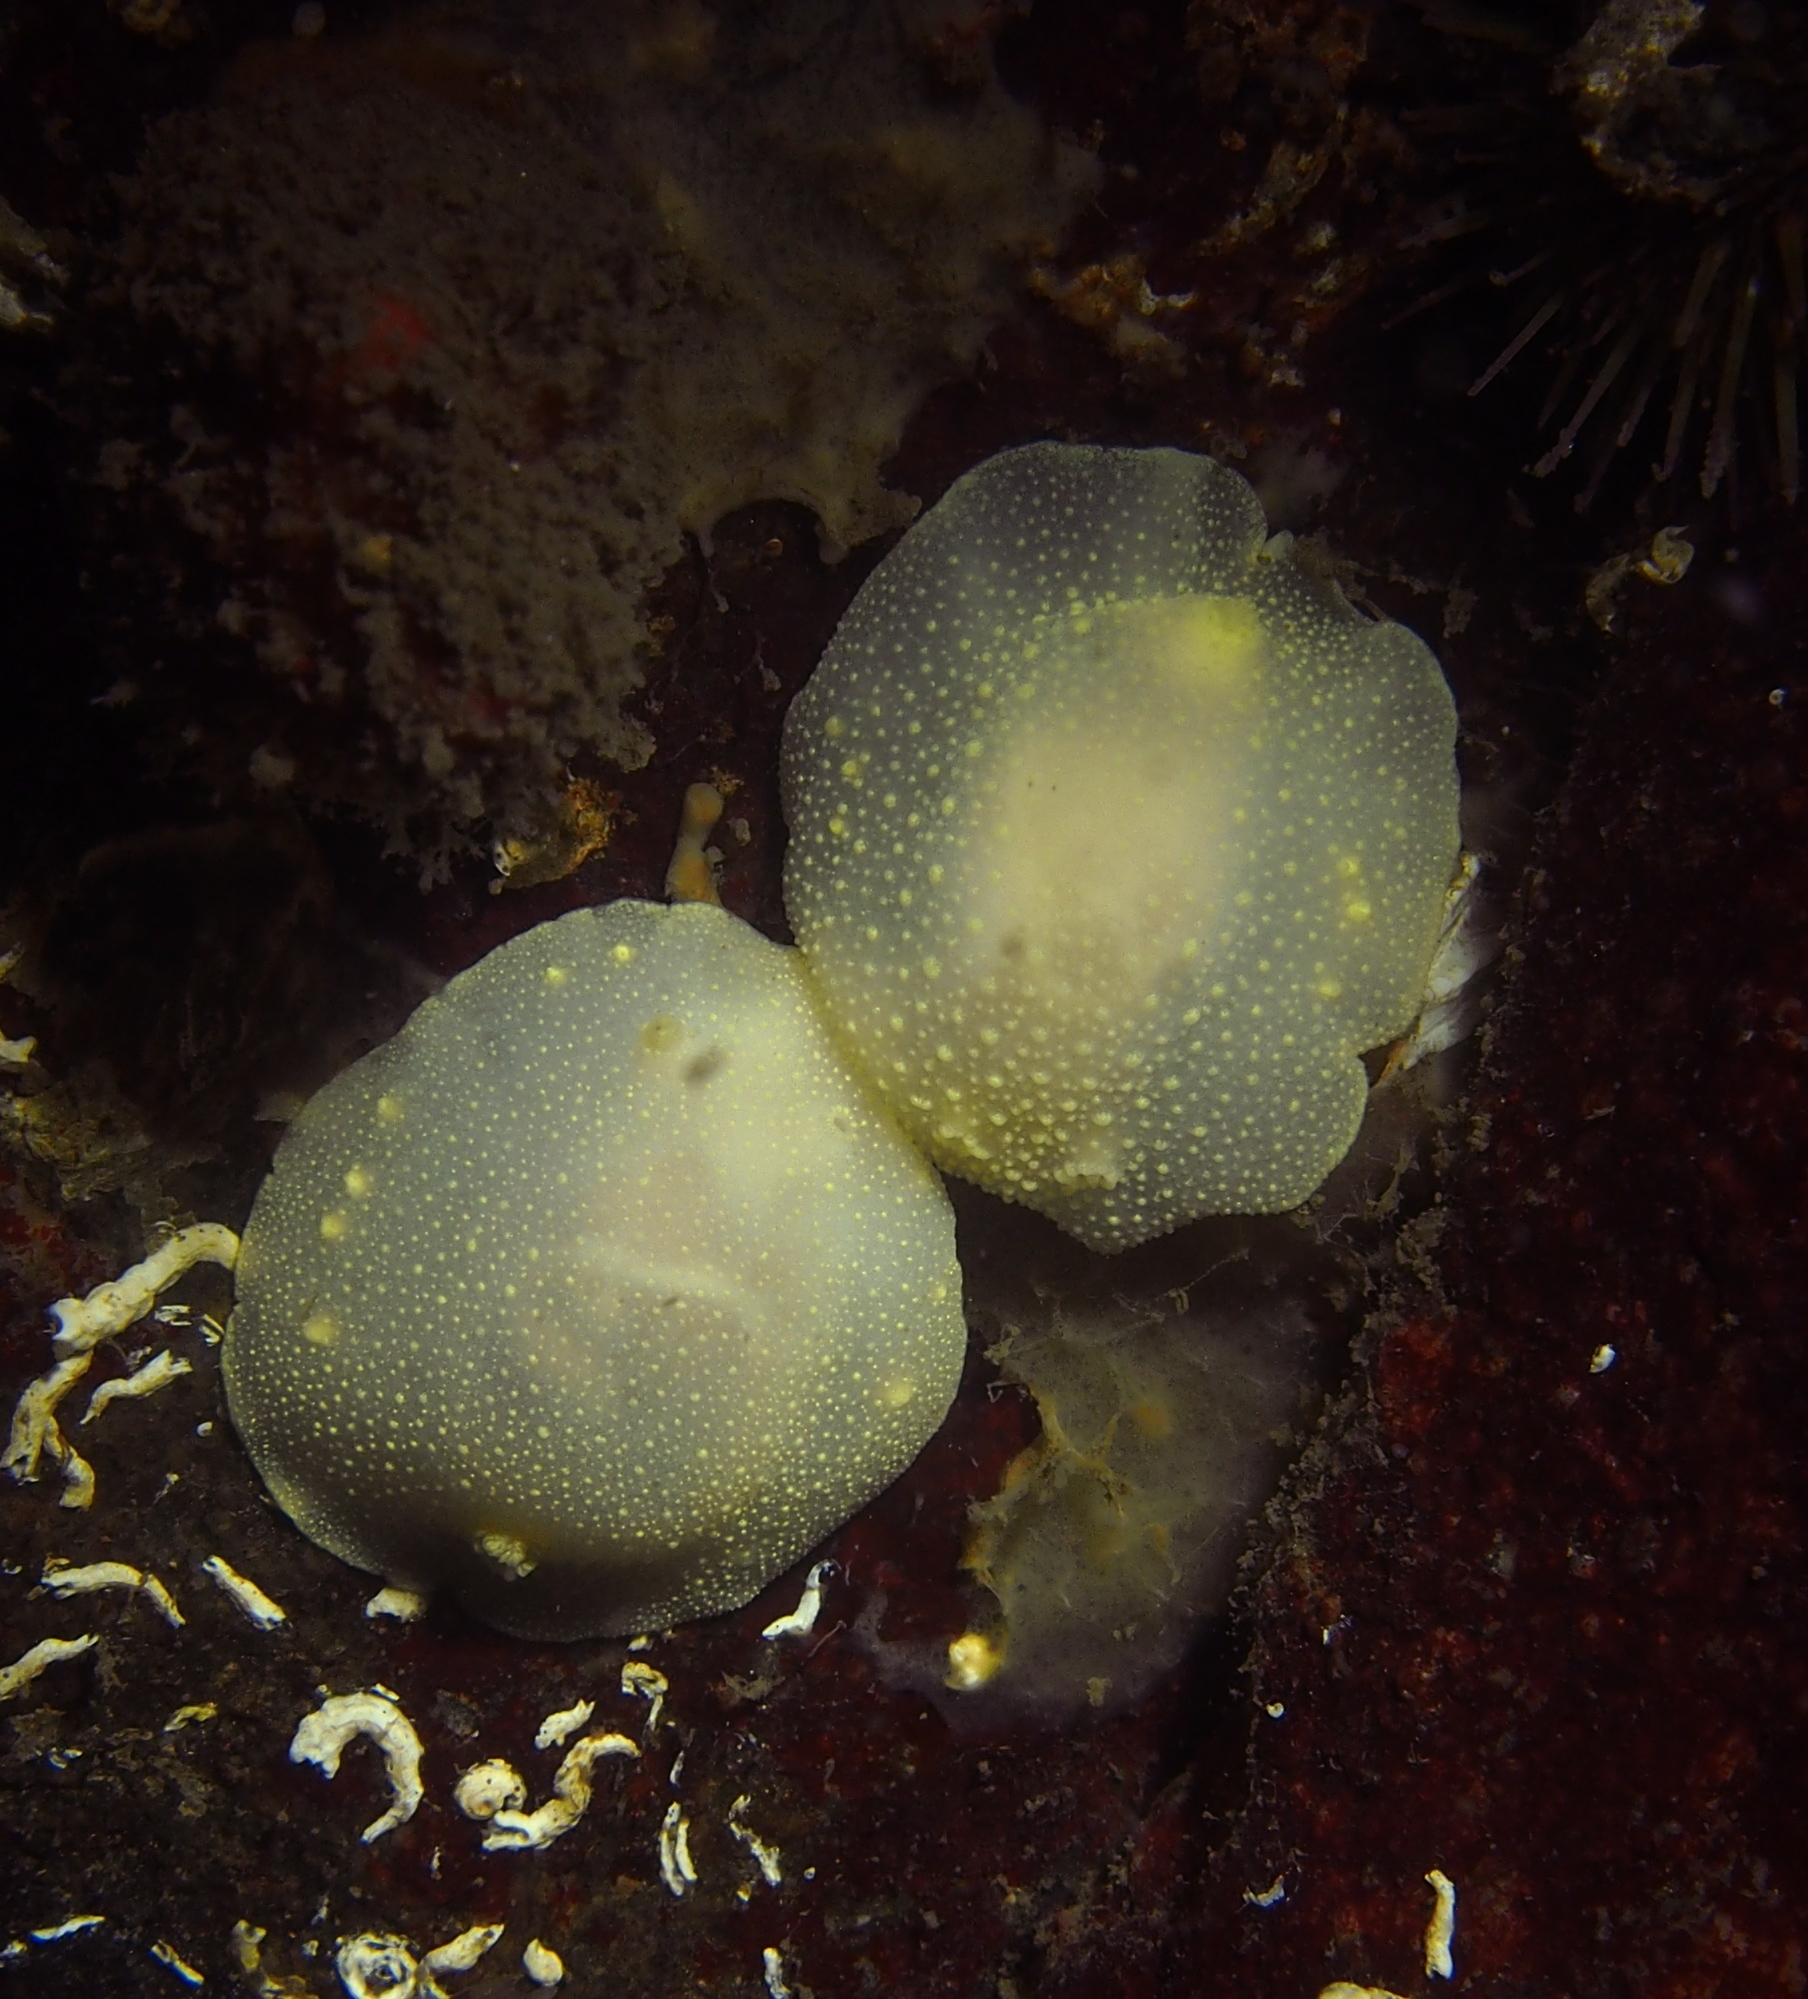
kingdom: Animalia
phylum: Mollusca
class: Gastropoda
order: Nudibranchia
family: Cadlinidae
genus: Cadlina
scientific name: Cadlina laevis
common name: White atlantic cadlina
